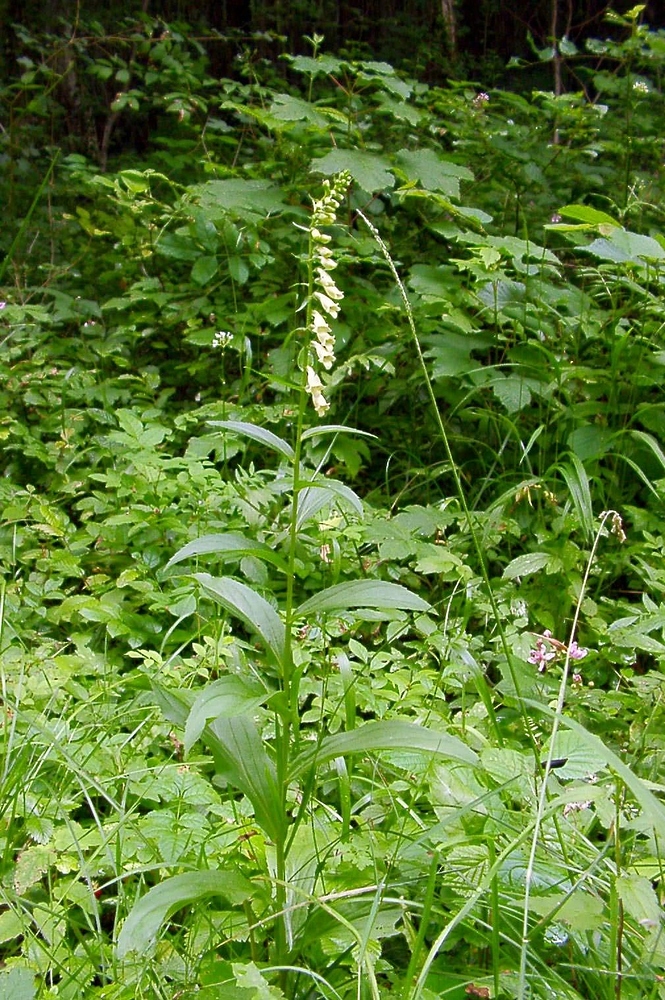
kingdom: Plantae
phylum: Tracheophyta
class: Magnoliopsida
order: Lamiales
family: Plantaginaceae
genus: Digitalis
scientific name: Digitalis lutea
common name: Straw foxglove
